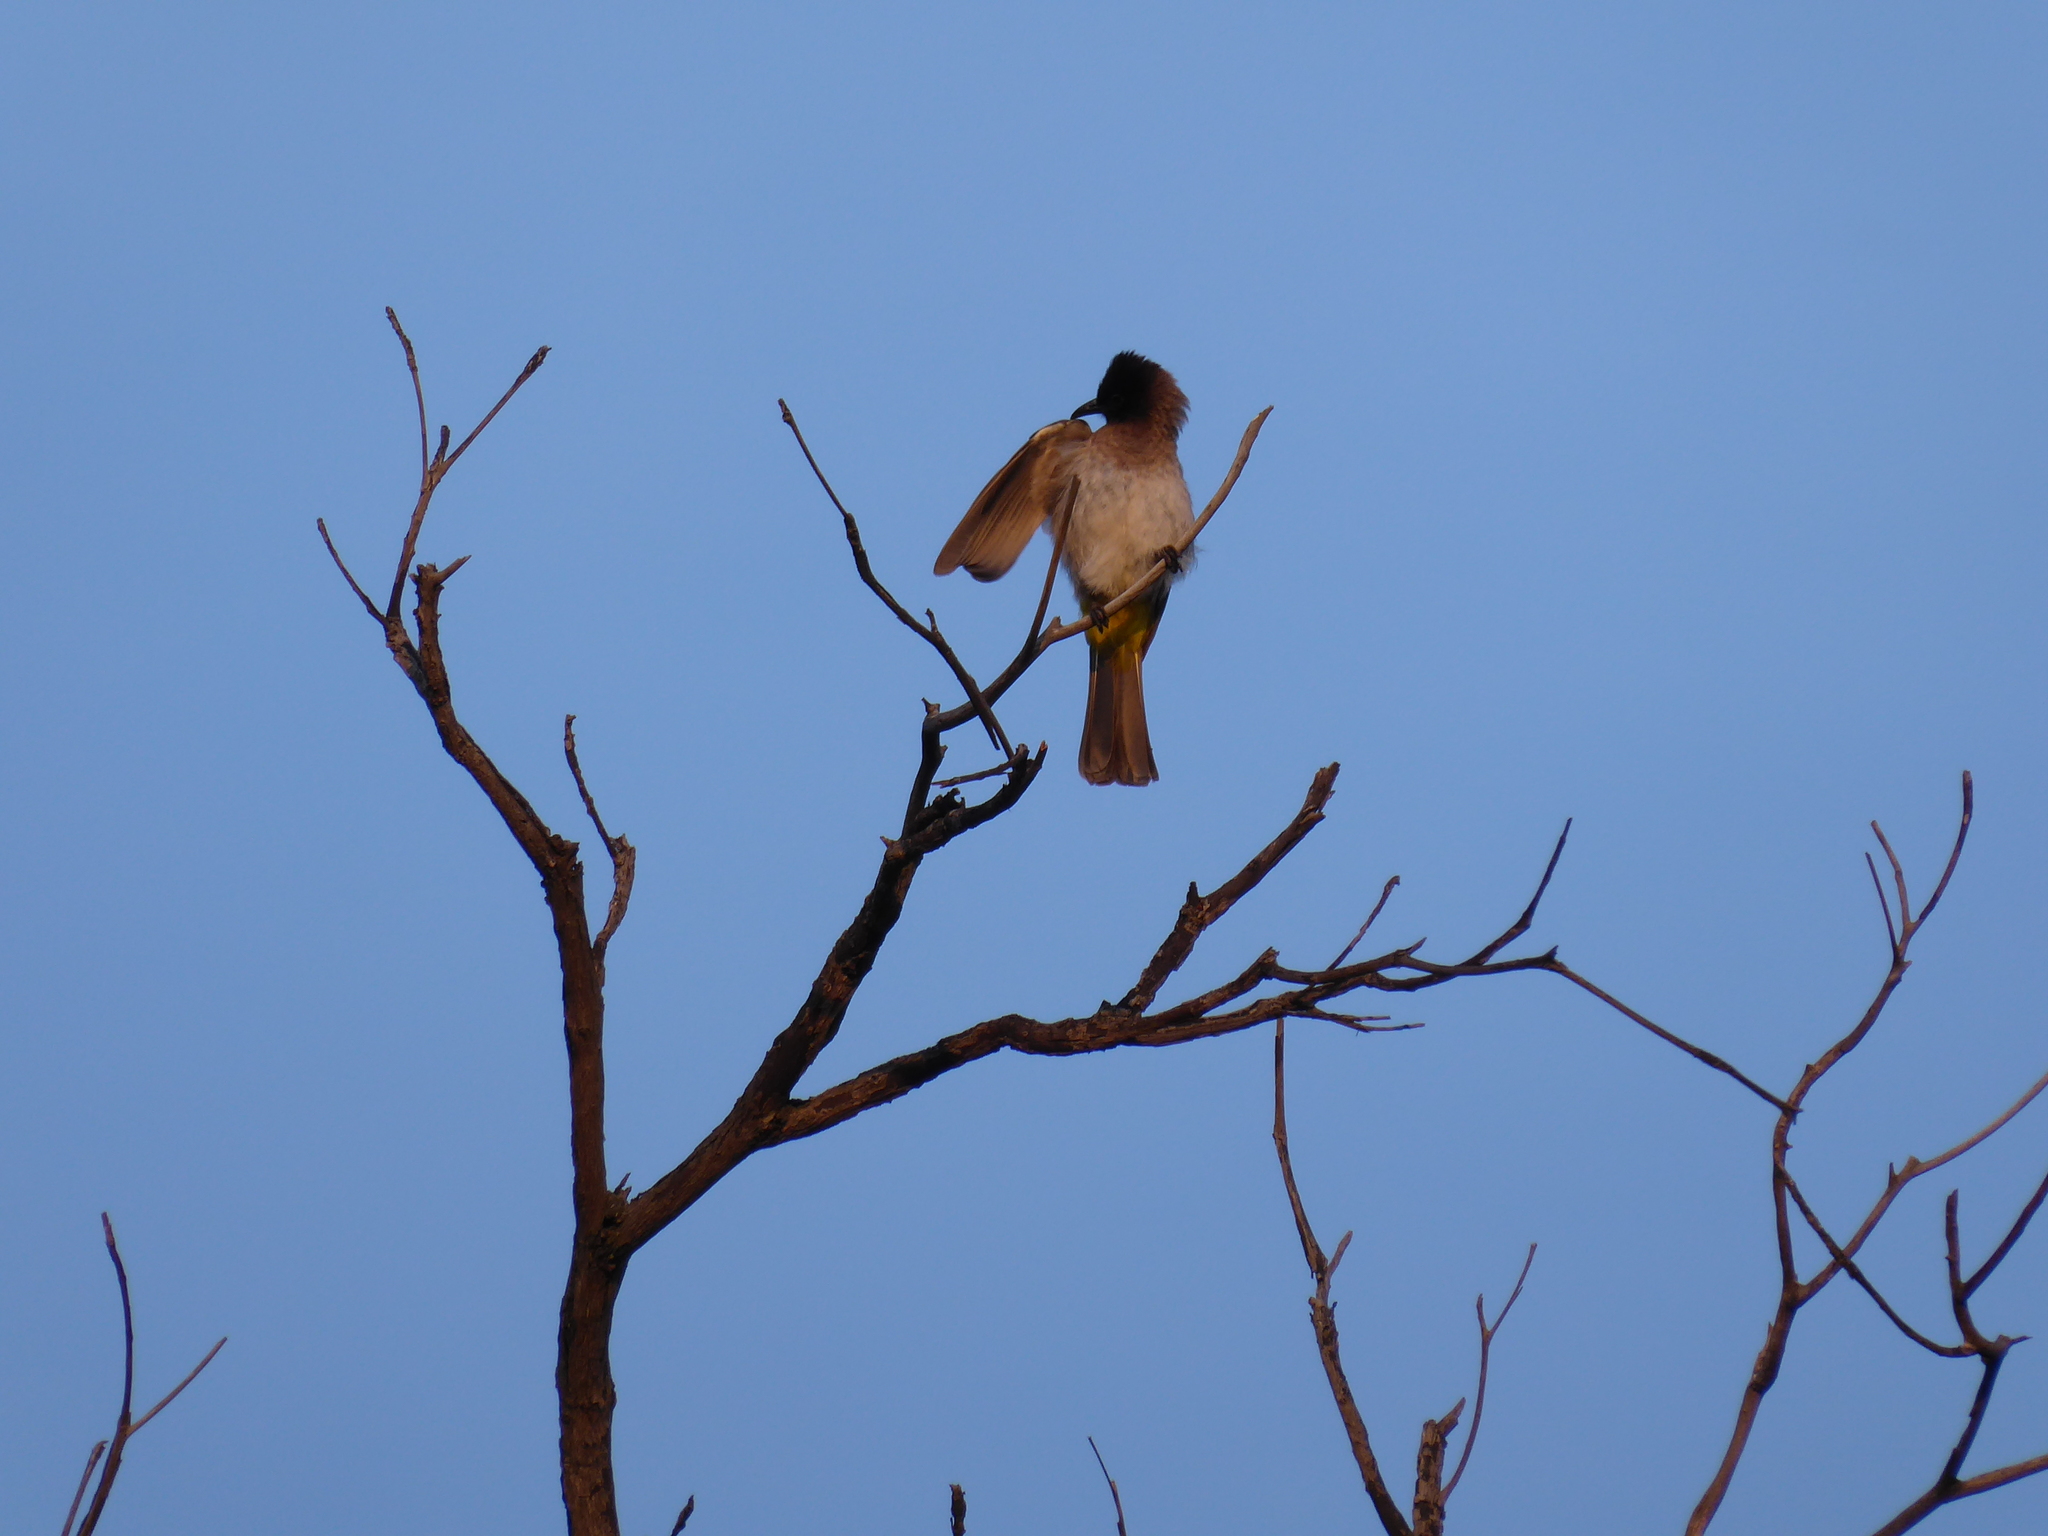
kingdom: Animalia
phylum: Chordata
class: Aves
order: Passeriformes
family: Pycnonotidae
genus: Pycnonotus
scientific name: Pycnonotus barbatus
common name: Common bulbul
